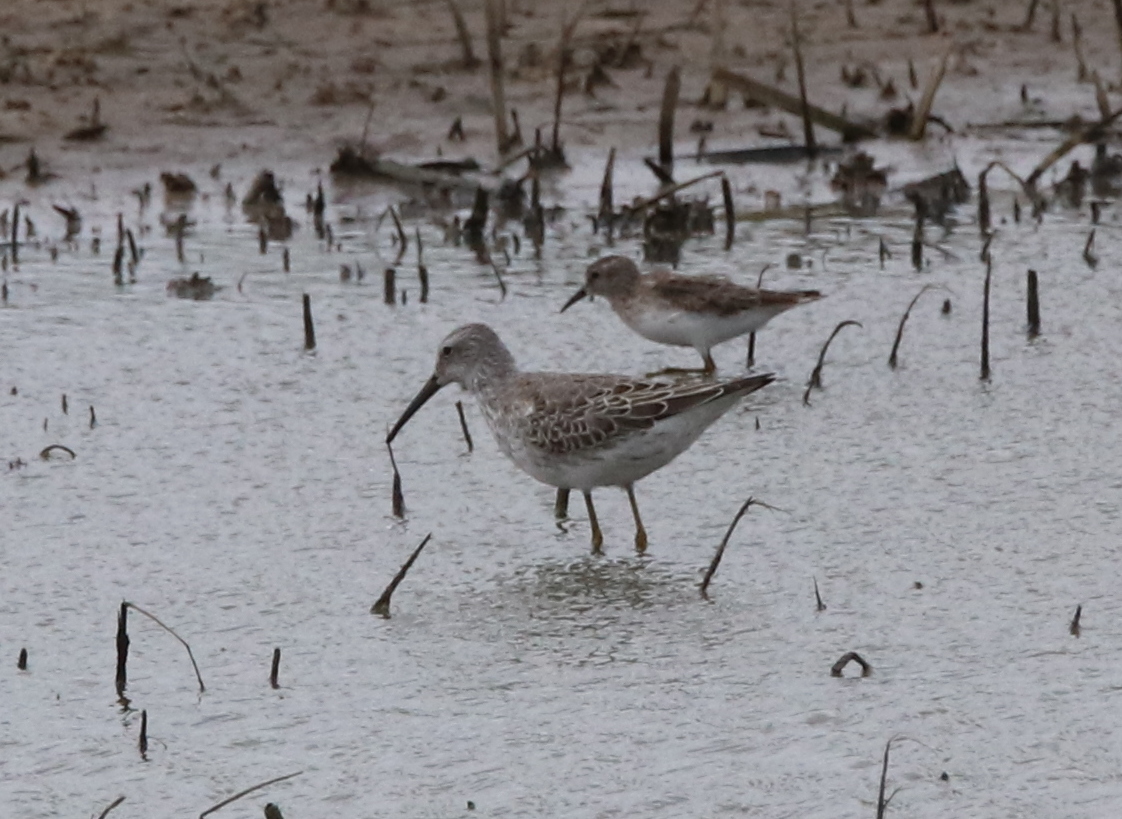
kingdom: Animalia
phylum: Chordata
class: Aves
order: Charadriiformes
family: Scolopacidae
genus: Calidris
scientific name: Calidris himantopus
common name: Stilt sandpiper
